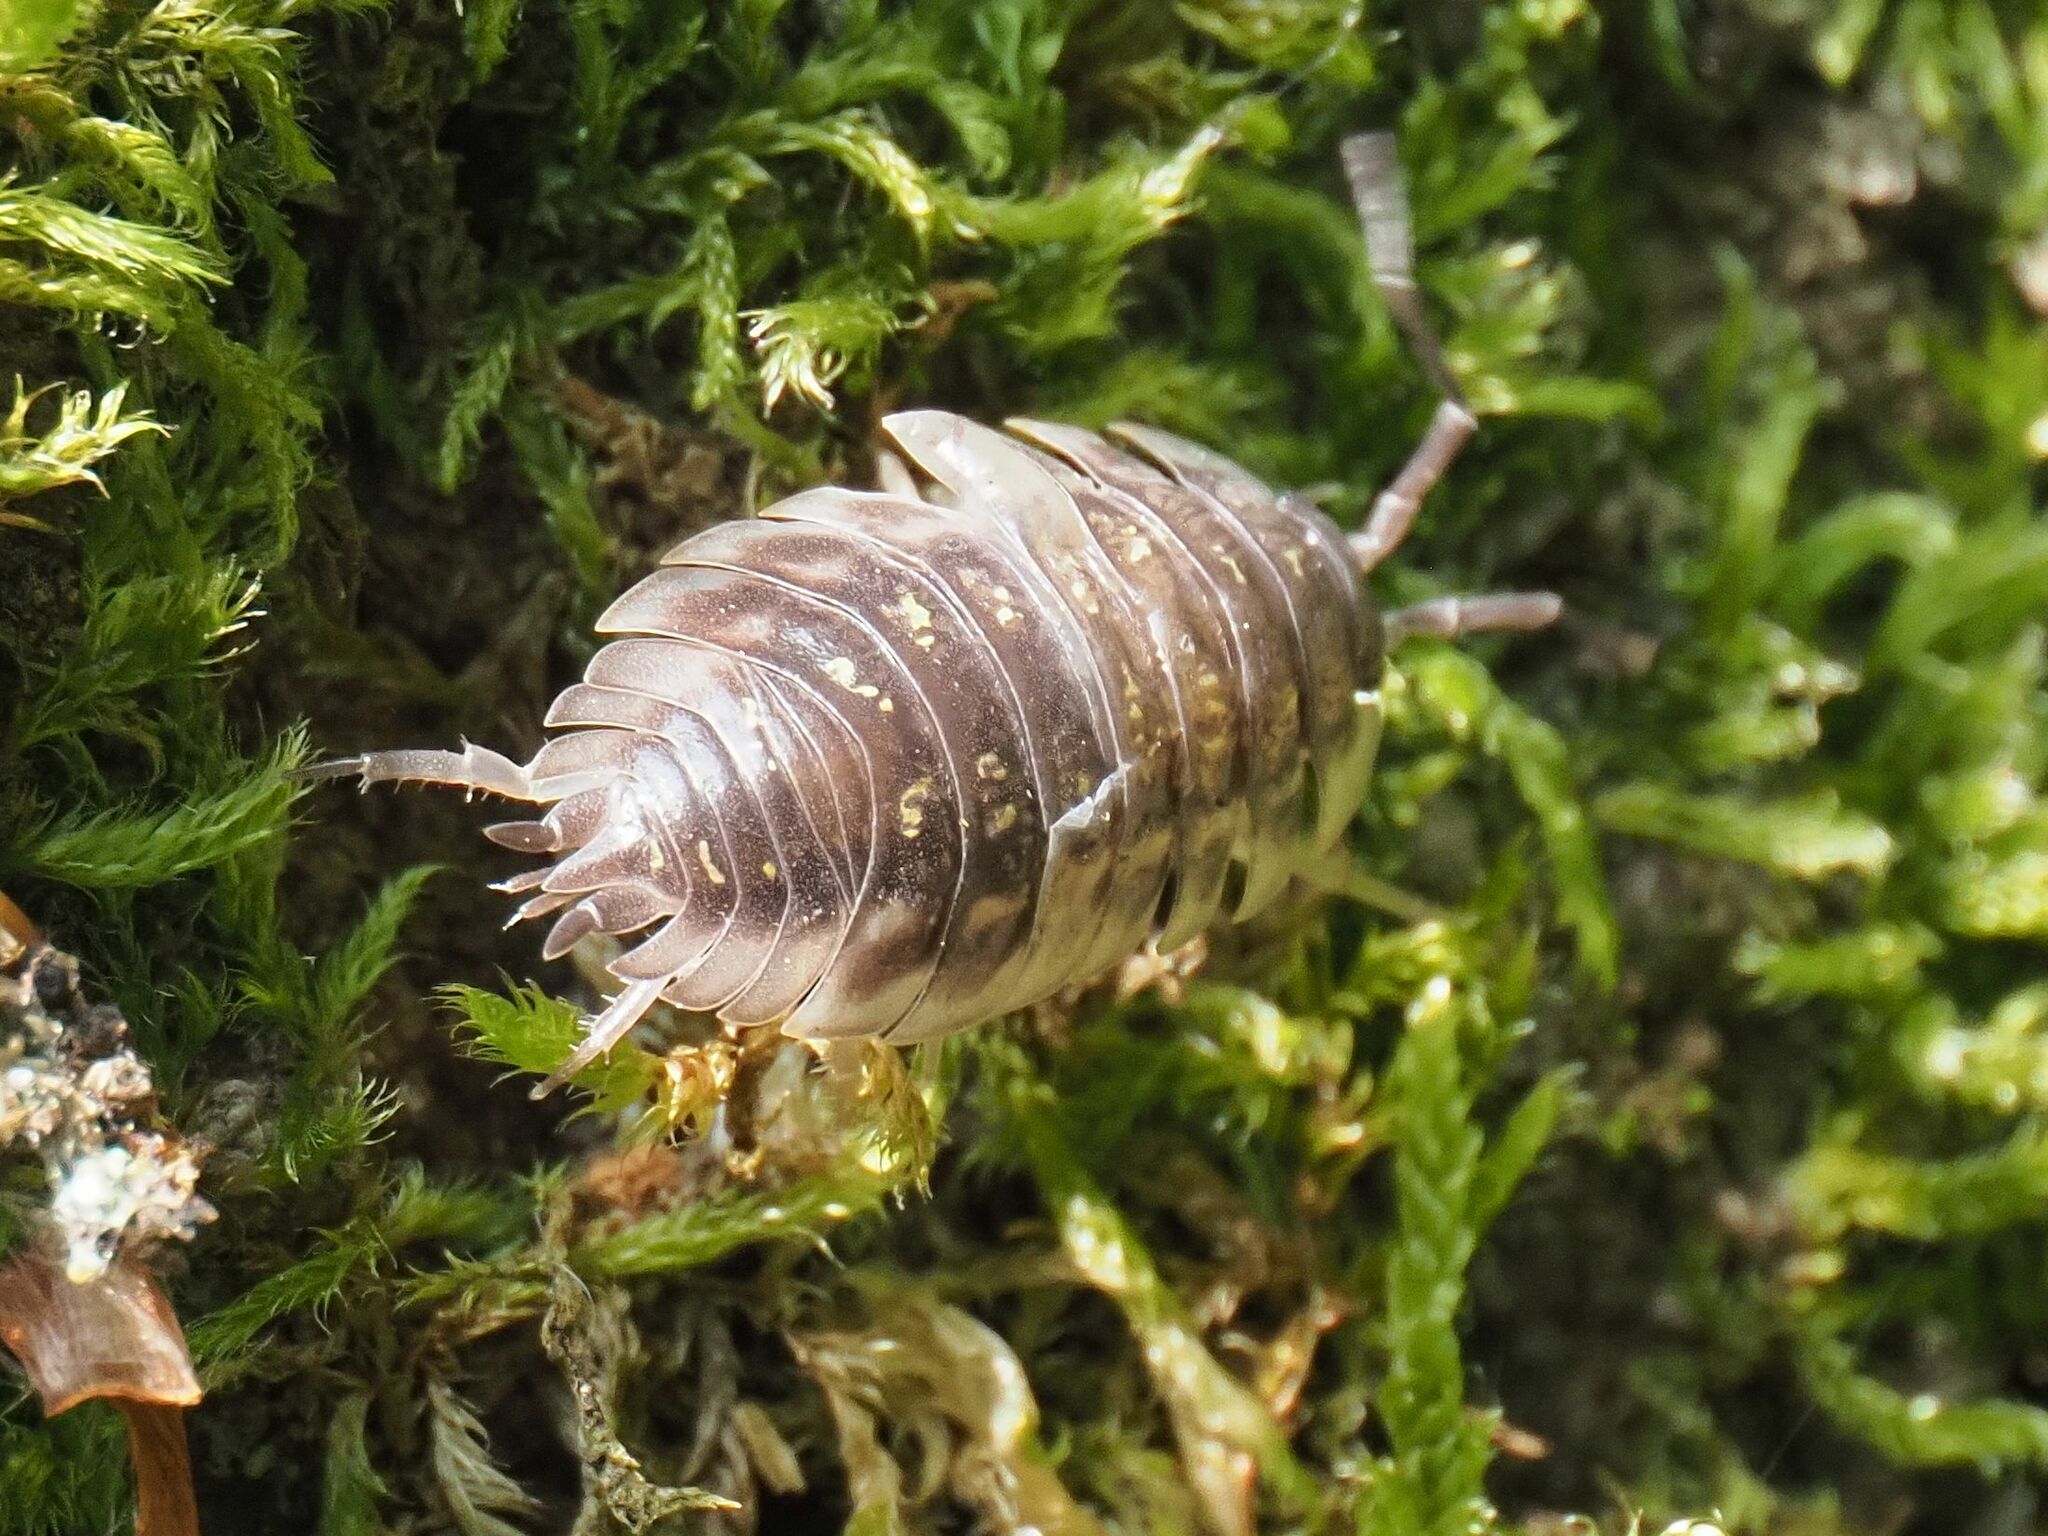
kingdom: Animalia
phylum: Arthropoda
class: Malacostraca
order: Isopoda
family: Oniscidae
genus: Oniscus
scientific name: Oniscus asellus
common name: Common shiny woodlouse
